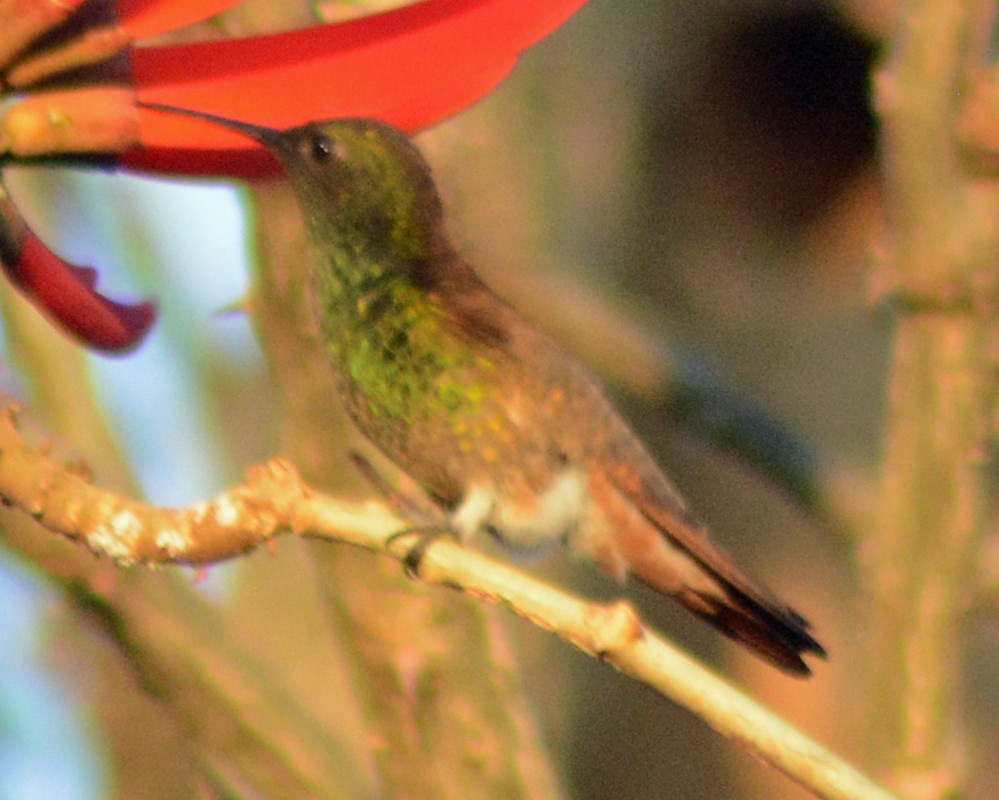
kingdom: Animalia
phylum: Chordata
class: Aves
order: Apodiformes
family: Trochilidae
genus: Saucerottia
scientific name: Saucerottia beryllina
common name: Berylline hummingbird
